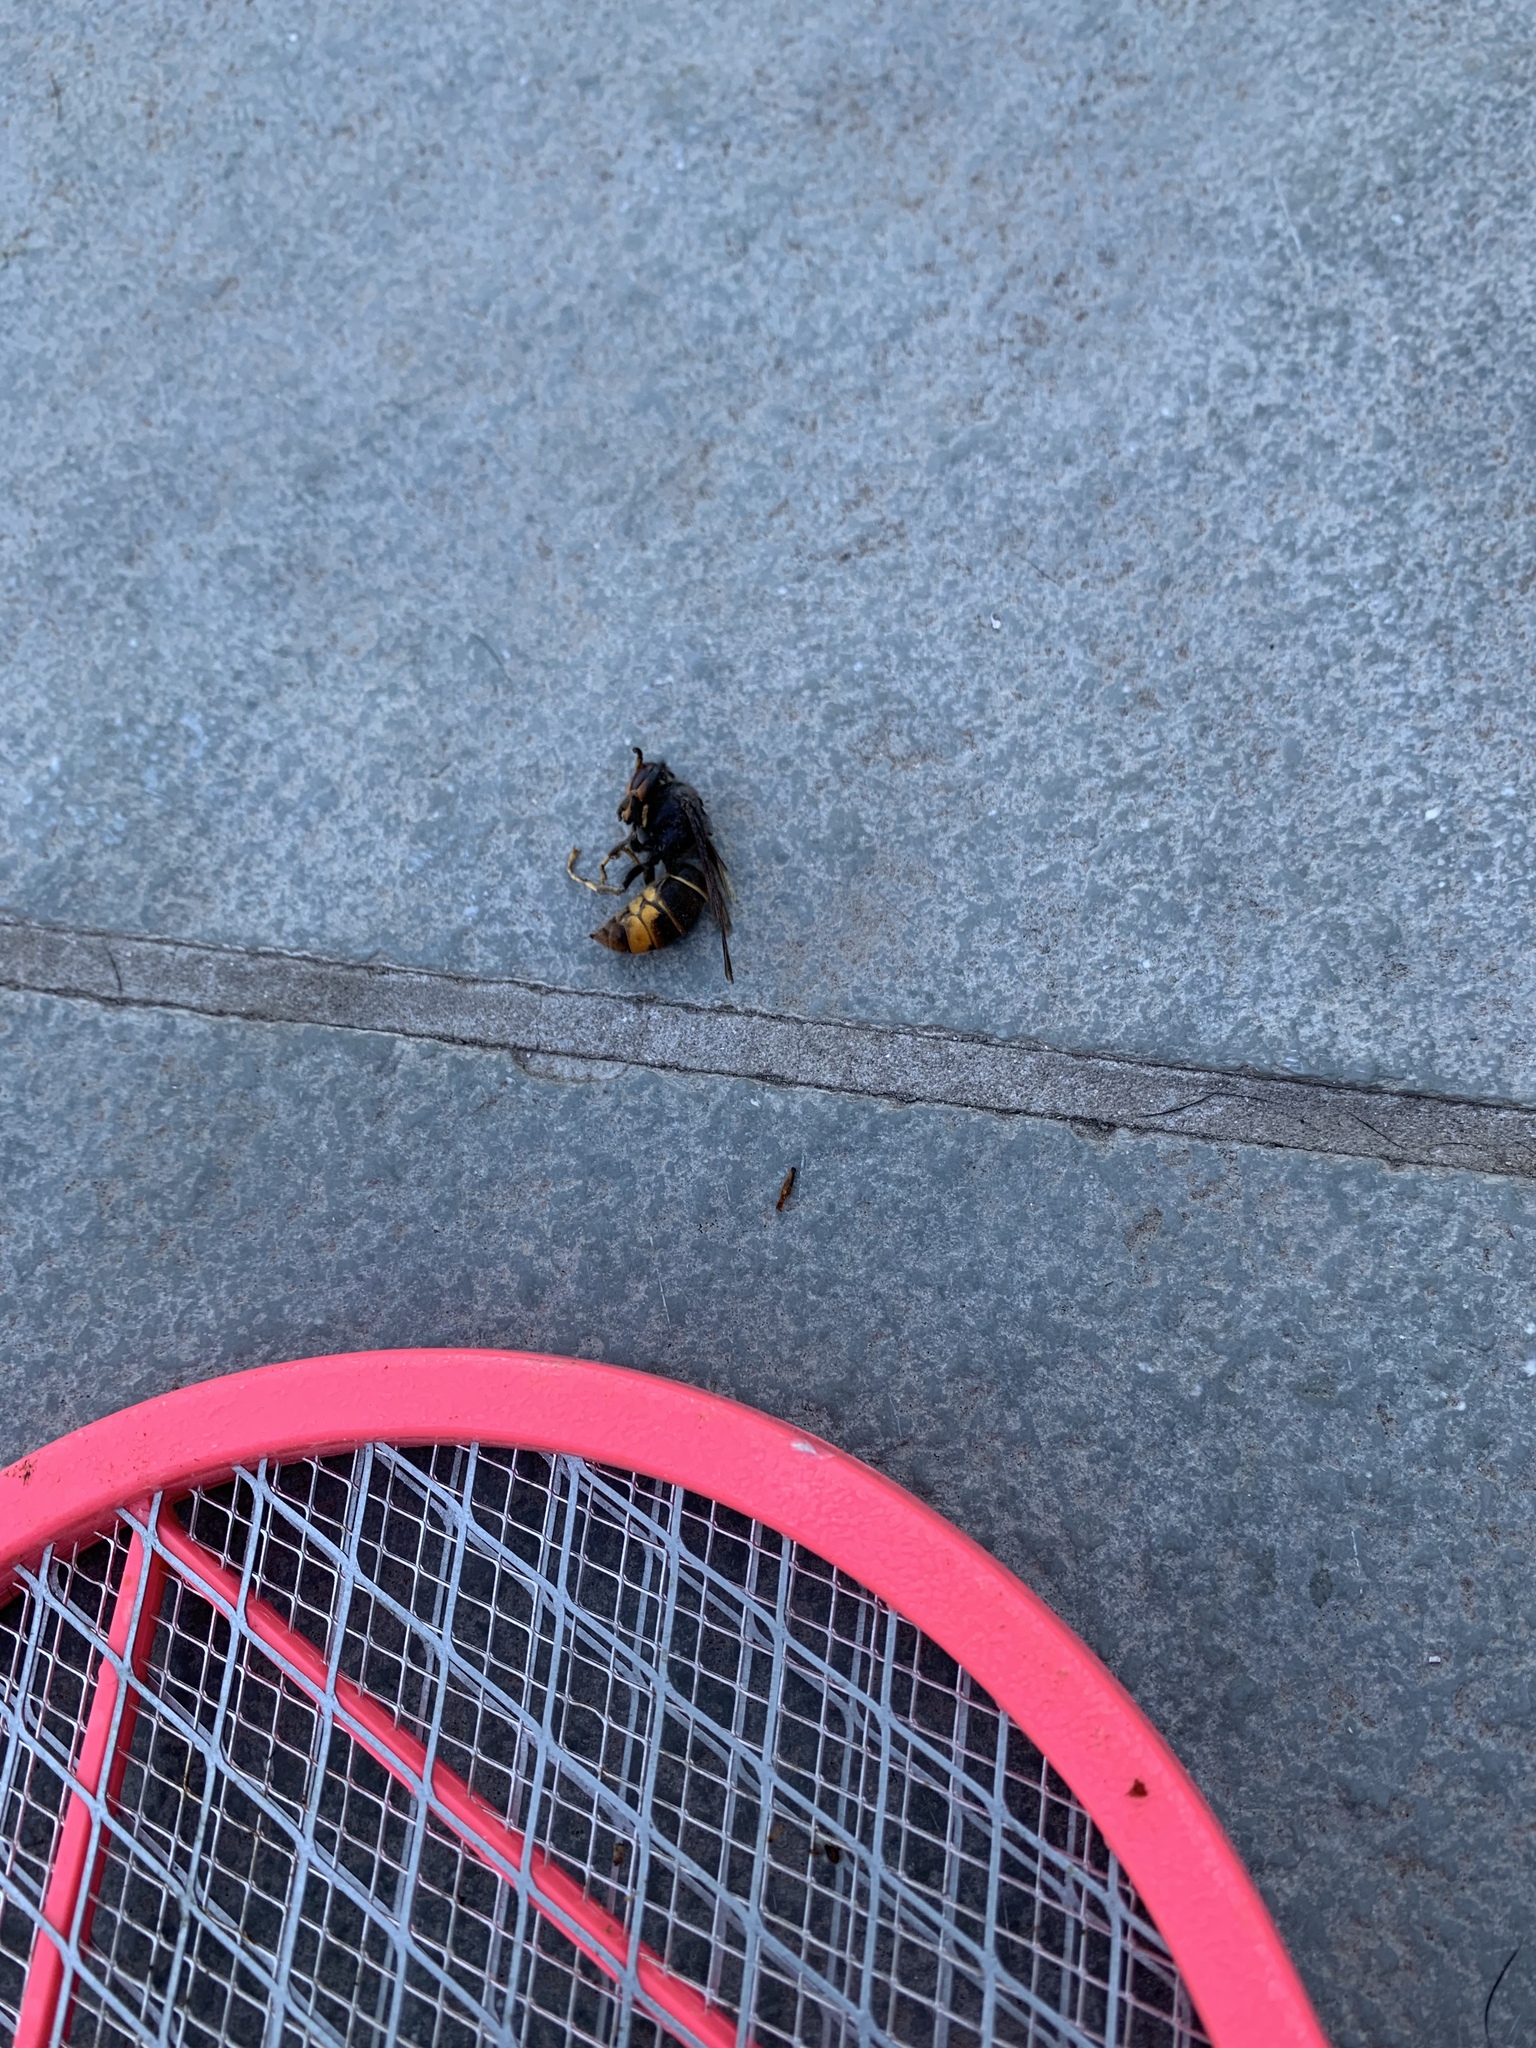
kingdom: Animalia
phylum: Arthropoda
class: Insecta
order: Hymenoptera
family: Vespidae
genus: Vespa
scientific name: Vespa velutina
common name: Asian hornet
